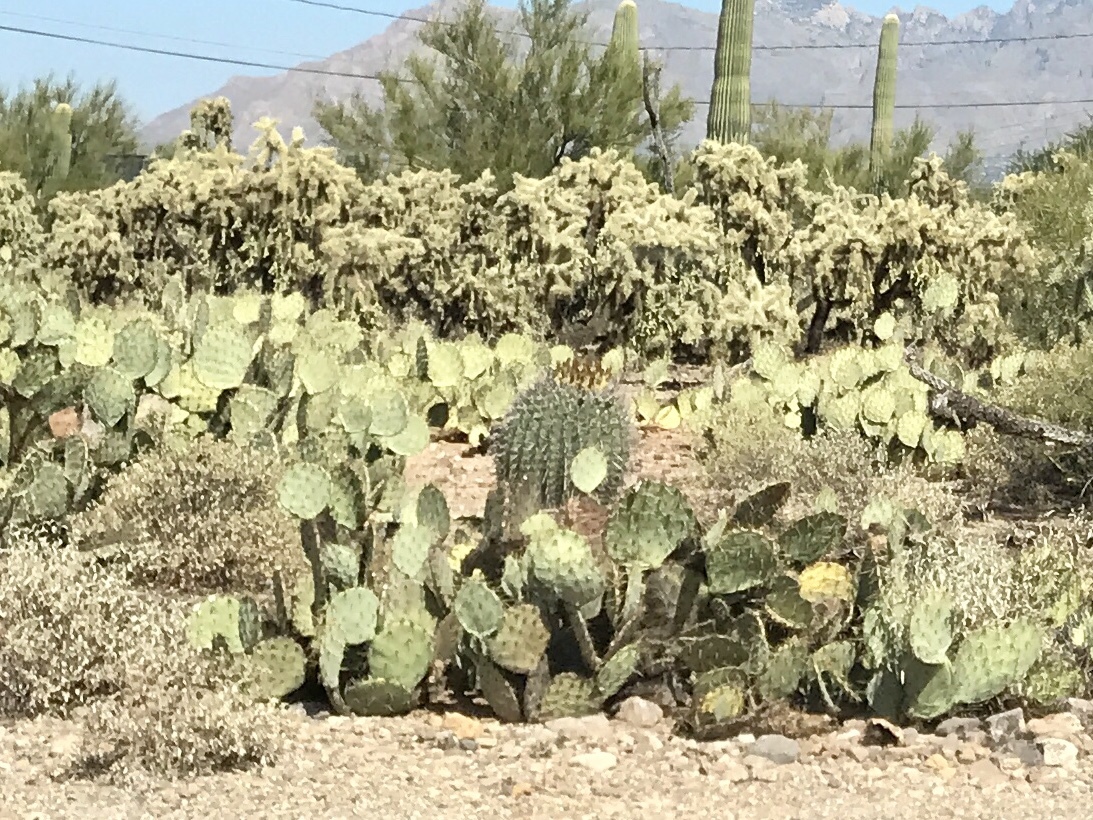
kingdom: Plantae
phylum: Tracheophyta
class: Magnoliopsida
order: Caryophyllales
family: Cactaceae
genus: Ferocactus
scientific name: Ferocactus wislizeni
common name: Candy barrel cactus
